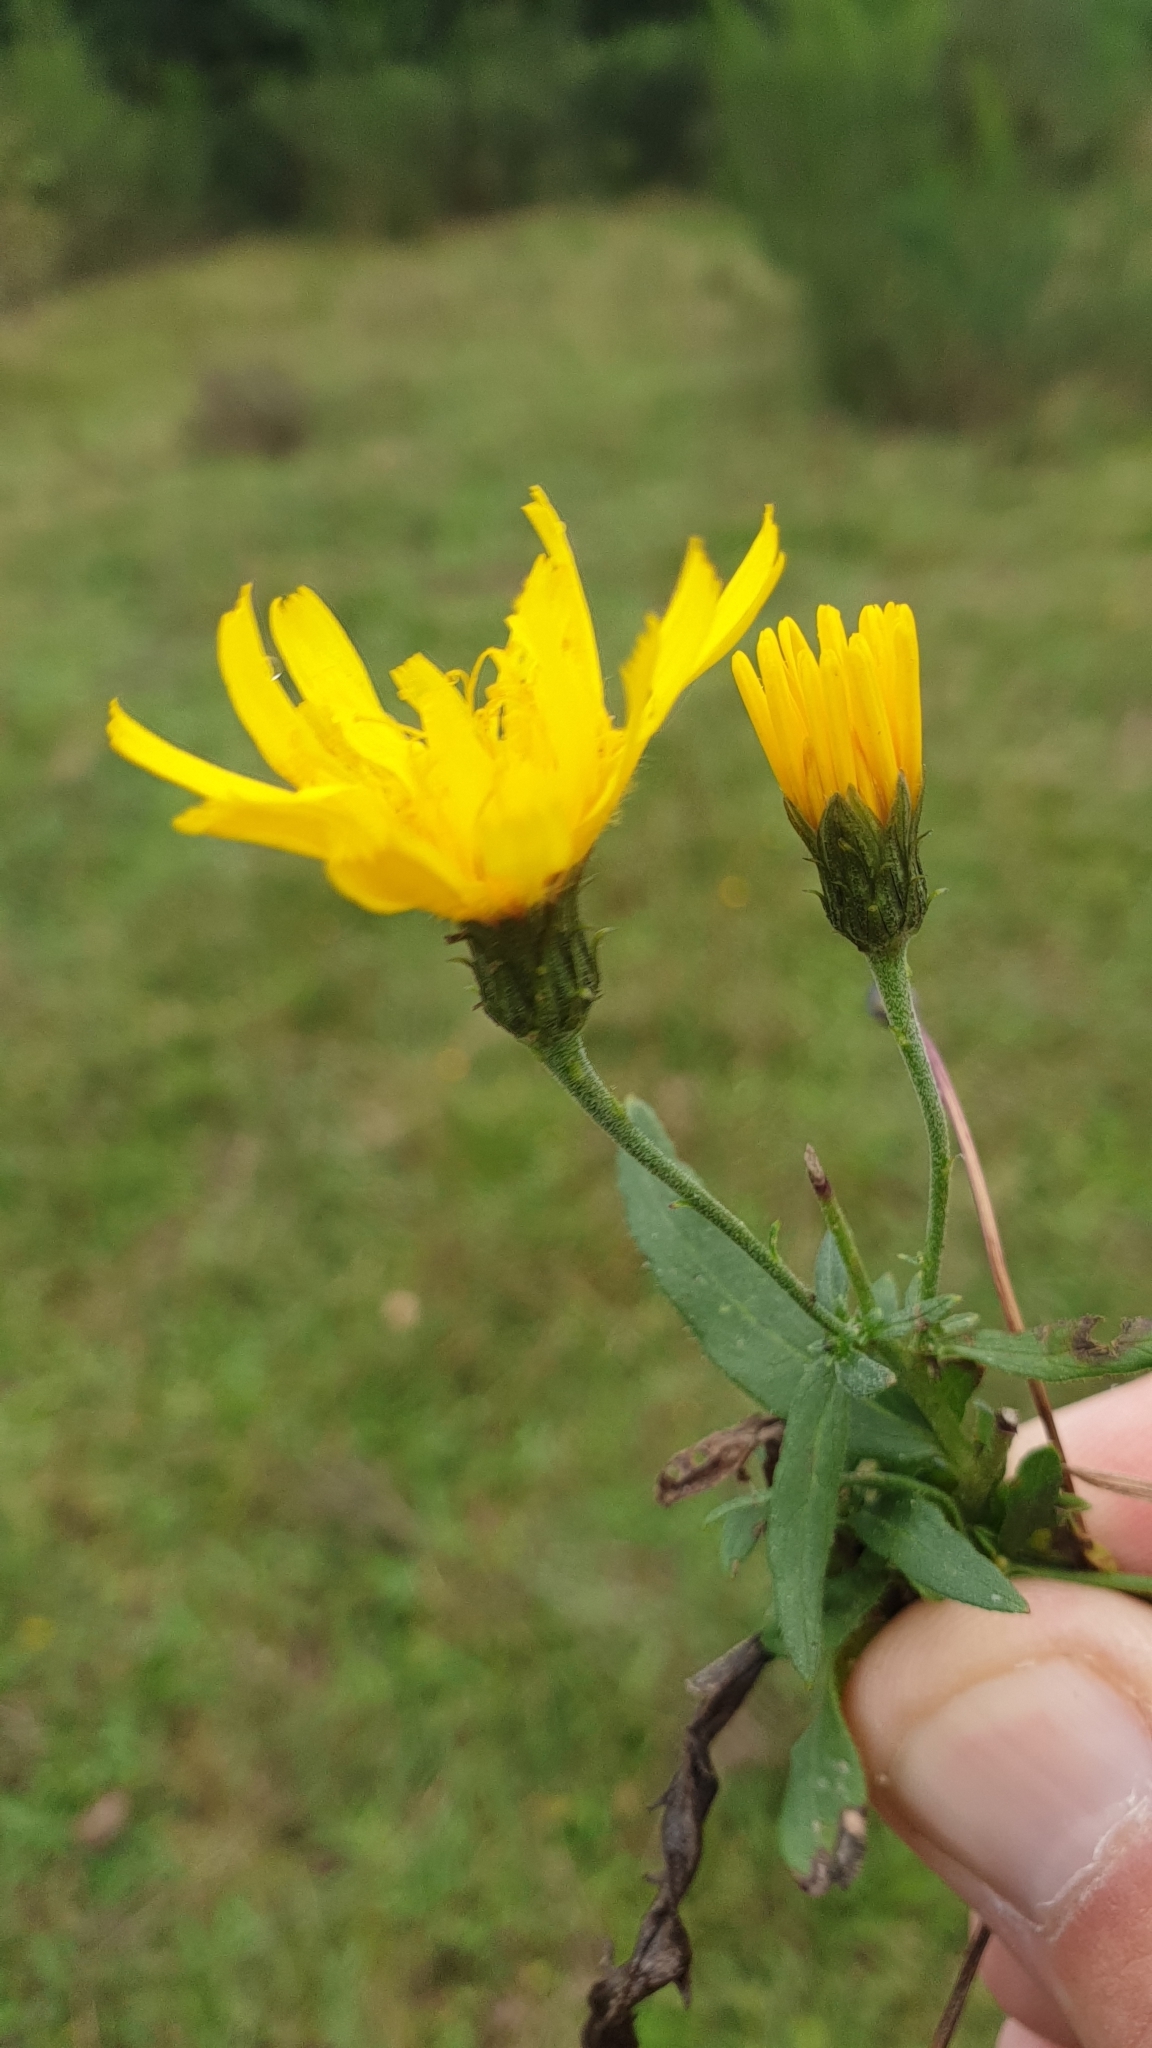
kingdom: Plantae
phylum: Tracheophyta
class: Magnoliopsida
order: Asterales
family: Asteraceae
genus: Hieracium
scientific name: Hieracium umbellatum
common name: Northern hawkweed
